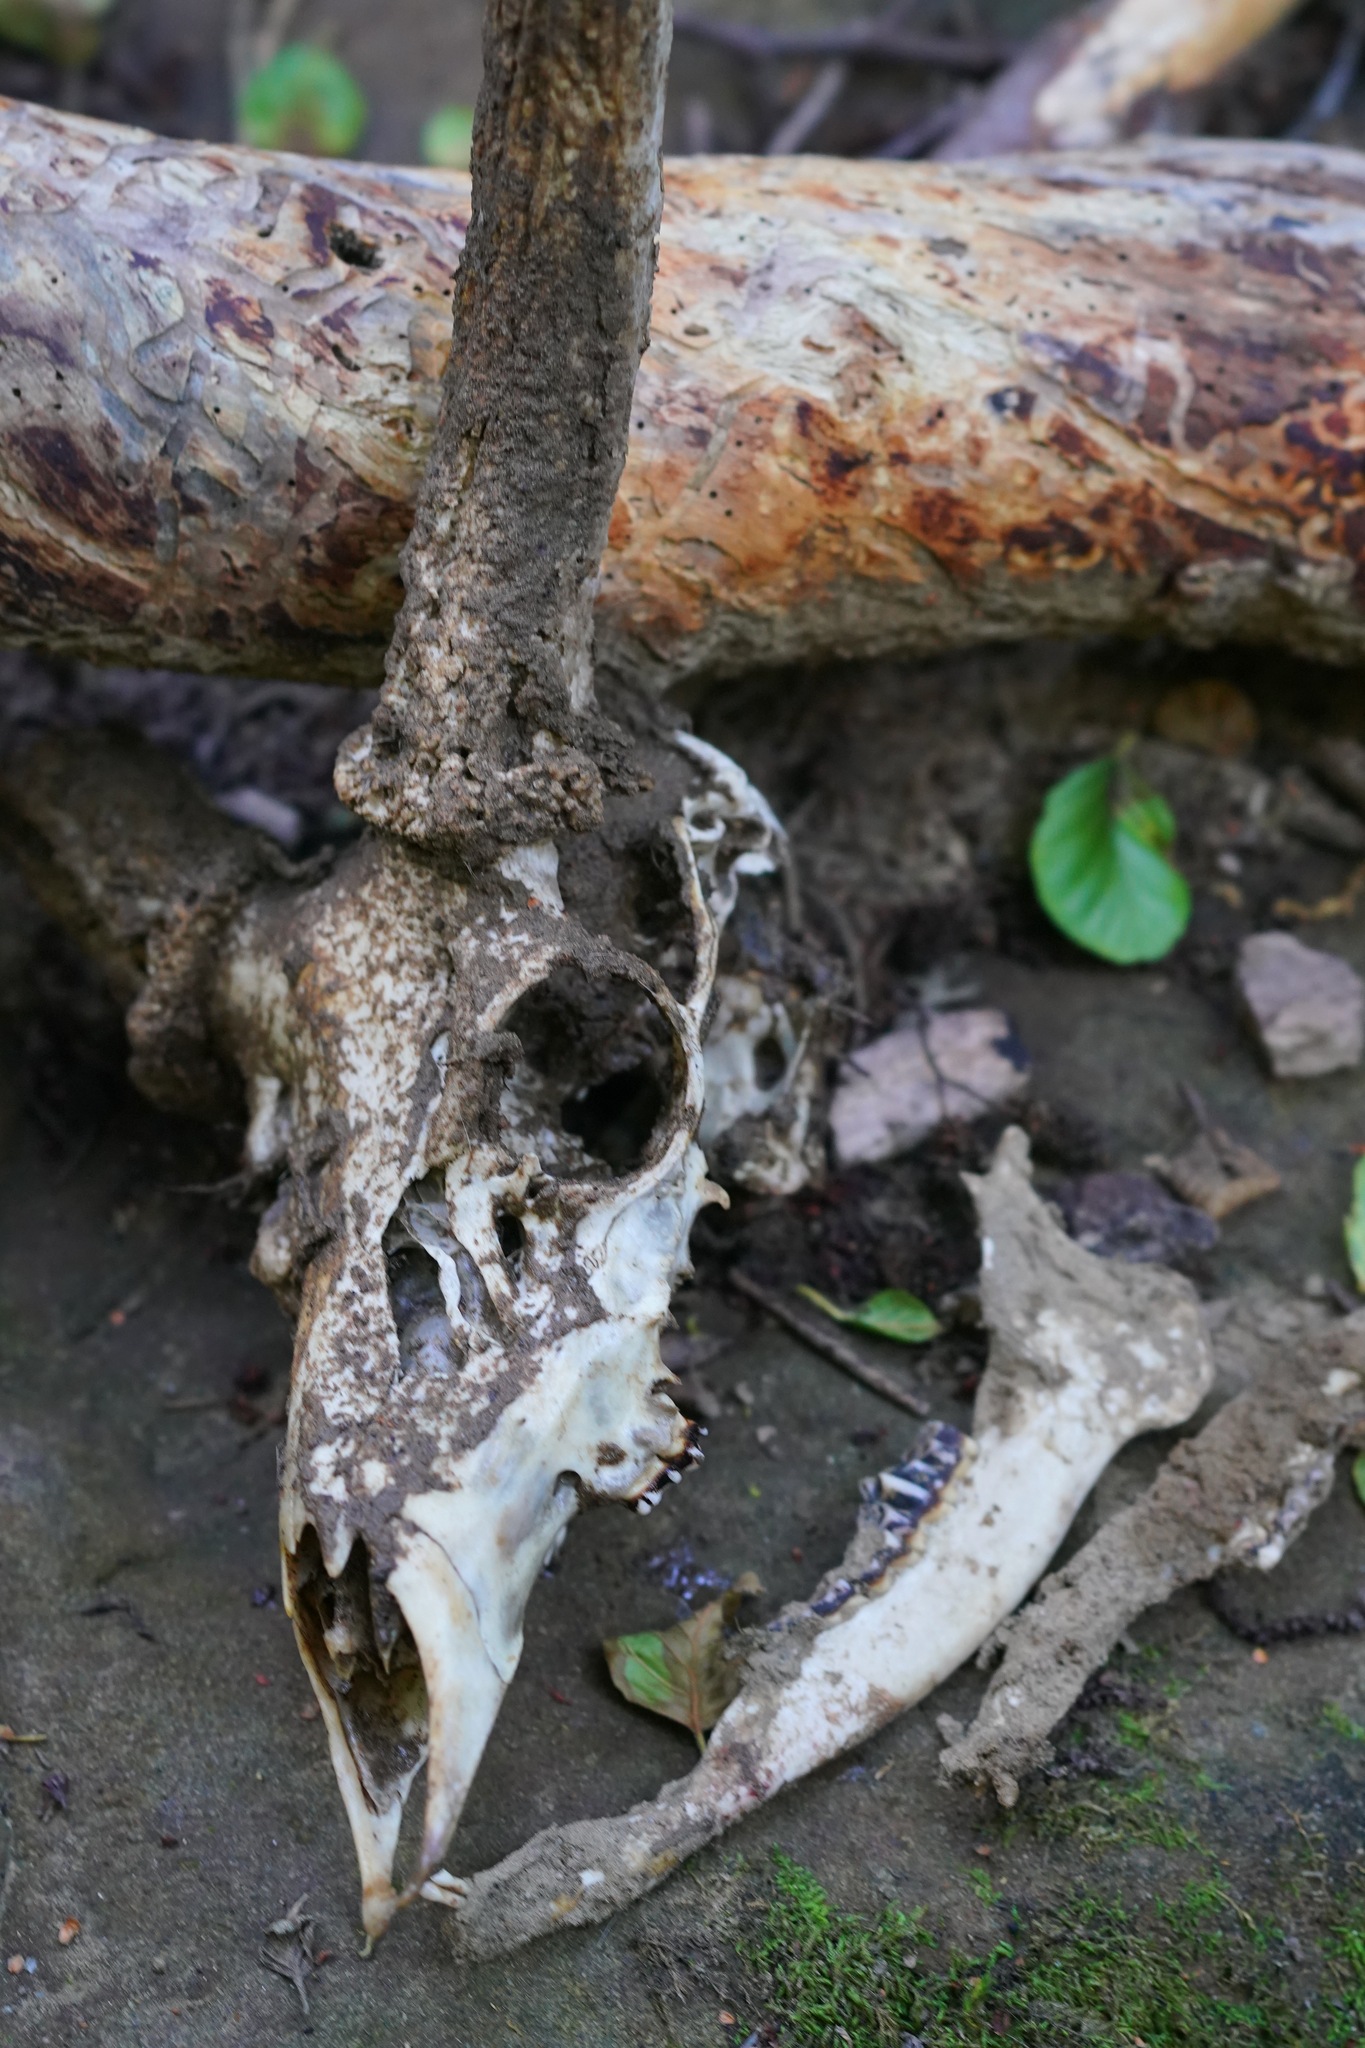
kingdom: Animalia
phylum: Chordata
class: Mammalia
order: Artiodactyla
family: Cervidae
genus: Odocoileus
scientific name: Odocoileus hemionus
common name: Mule deer
